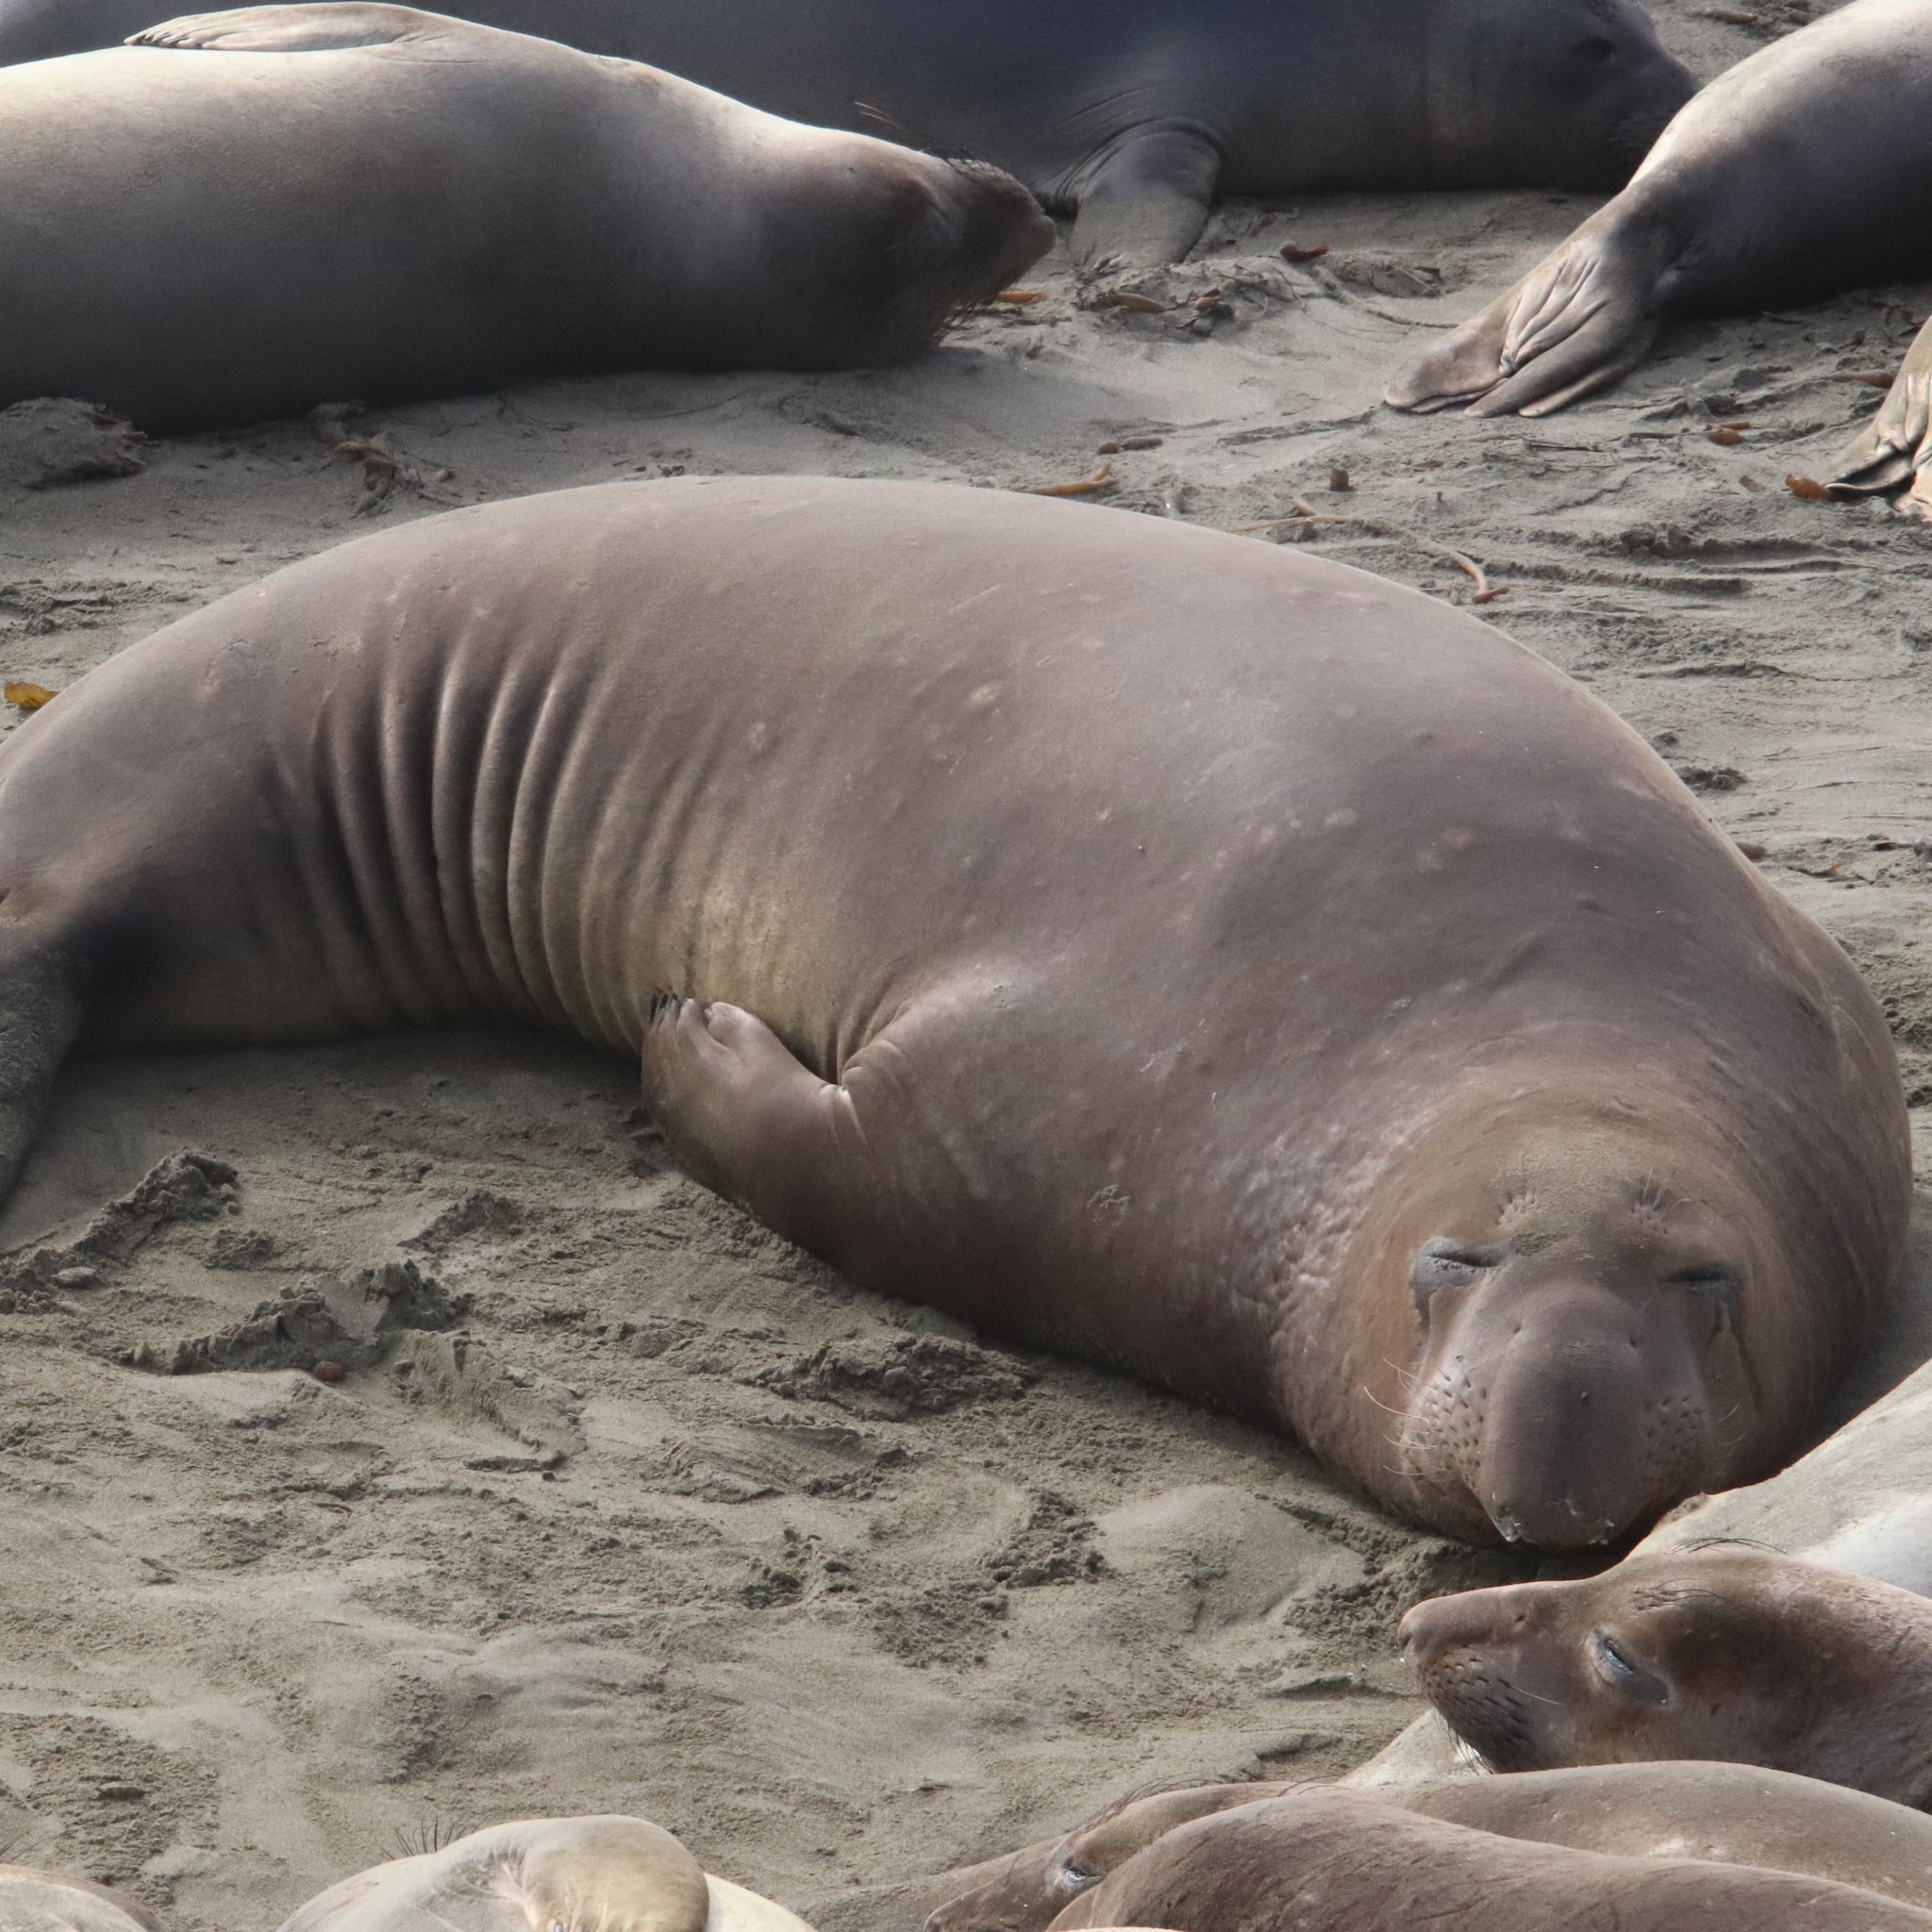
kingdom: Animalia
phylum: Chordata
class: Mammalia
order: Carnivora
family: Phocidae
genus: Mirounga
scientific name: Mirounga angustirostris
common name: Northern elephant seal
